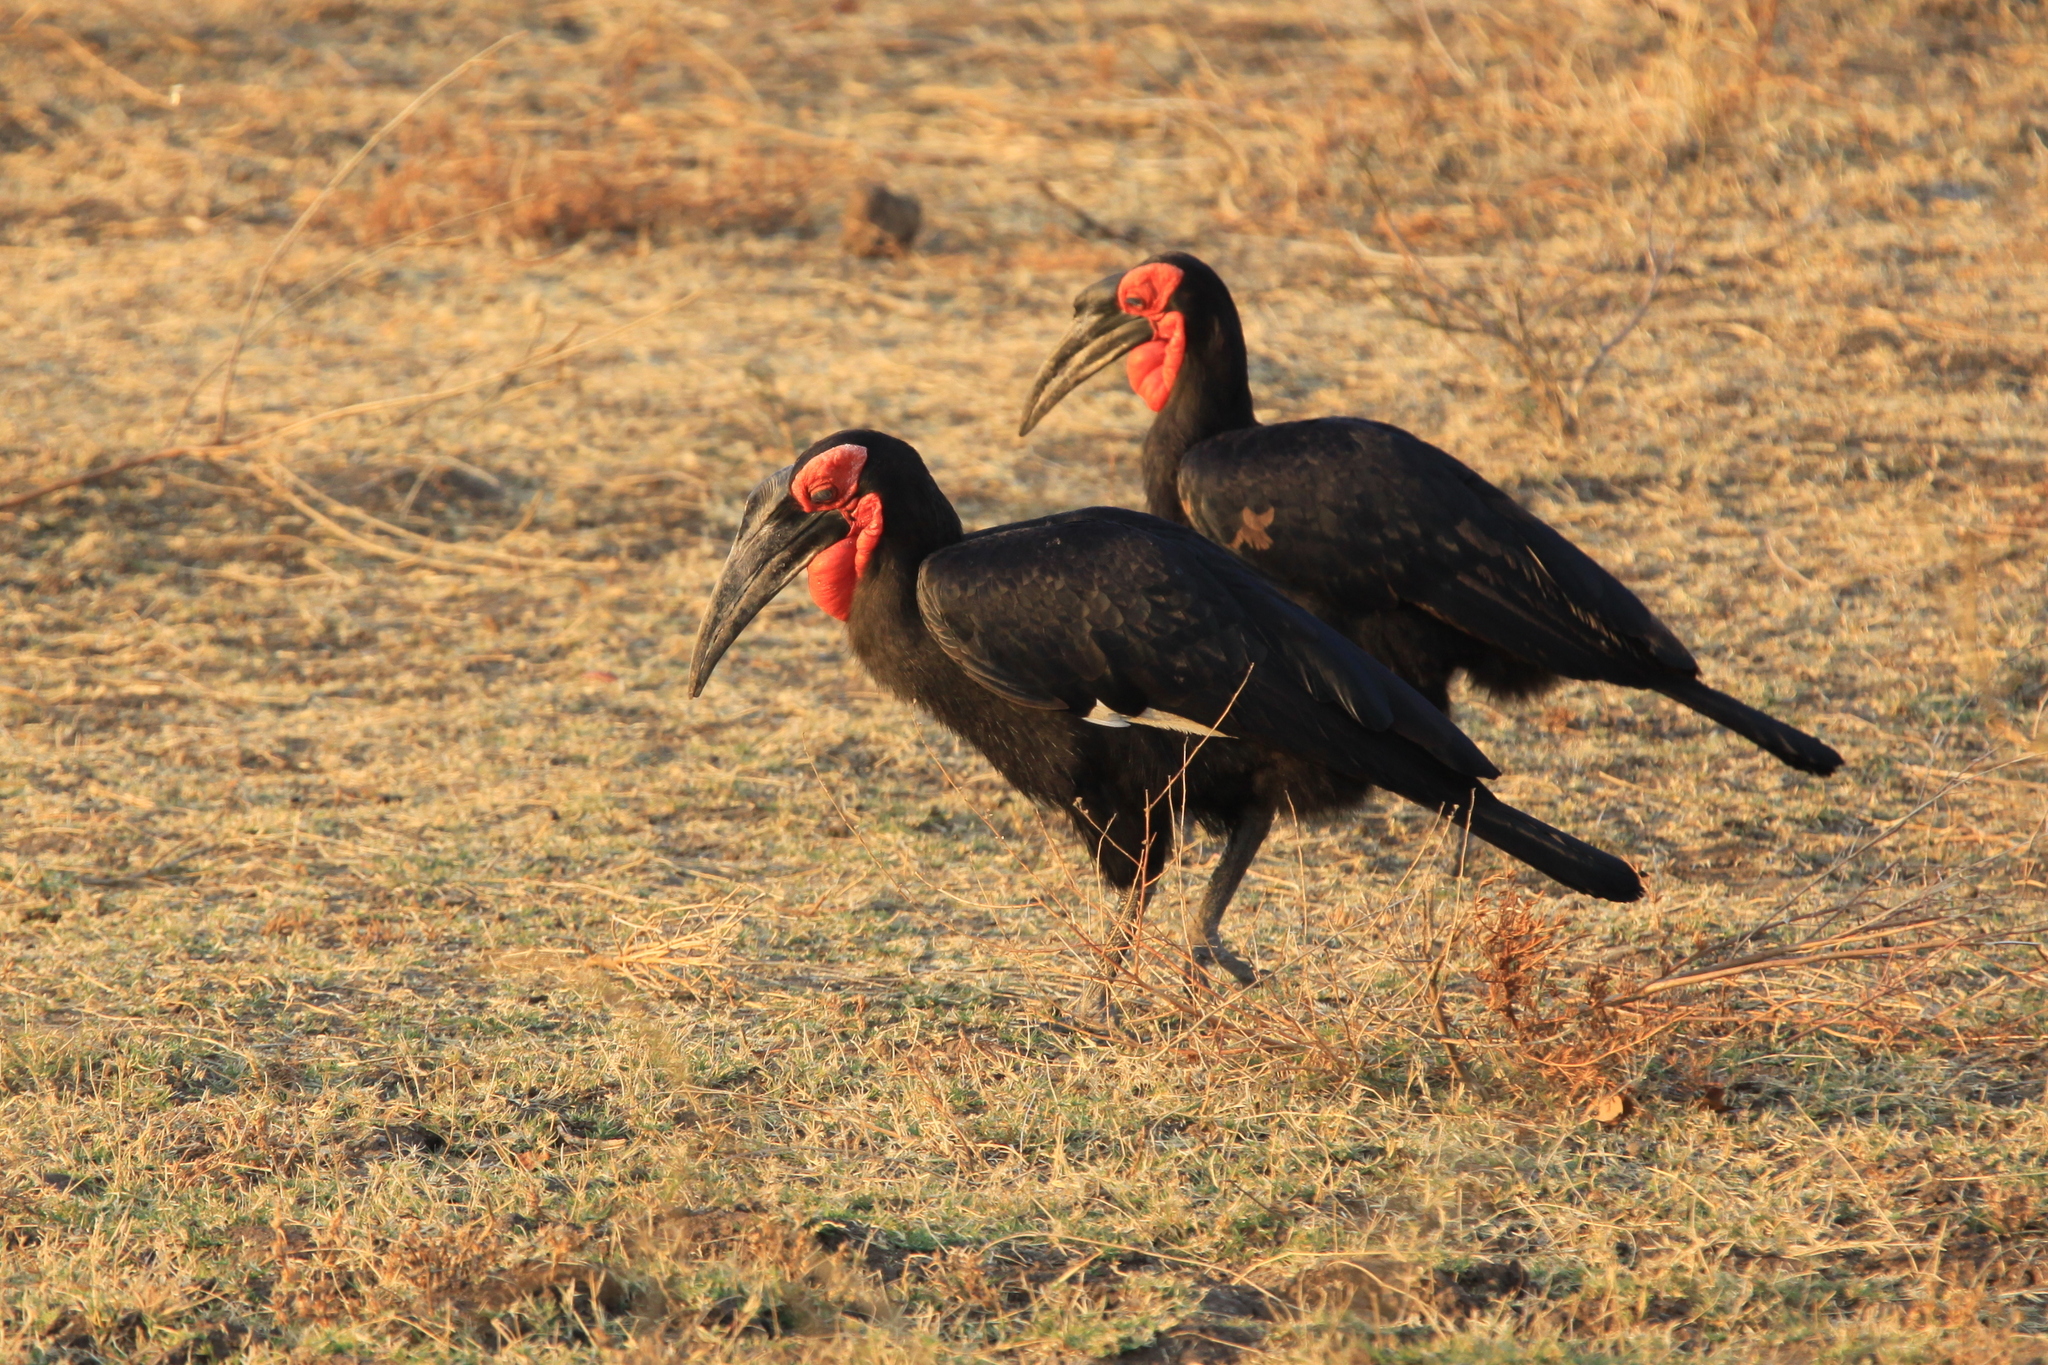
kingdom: Animalia
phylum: Chordata
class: Aves
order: Bucerotiformes
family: Bucorvidae
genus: Bucorvus
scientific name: Bucorvus leadbeateri
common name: Southern ground-hornbill
